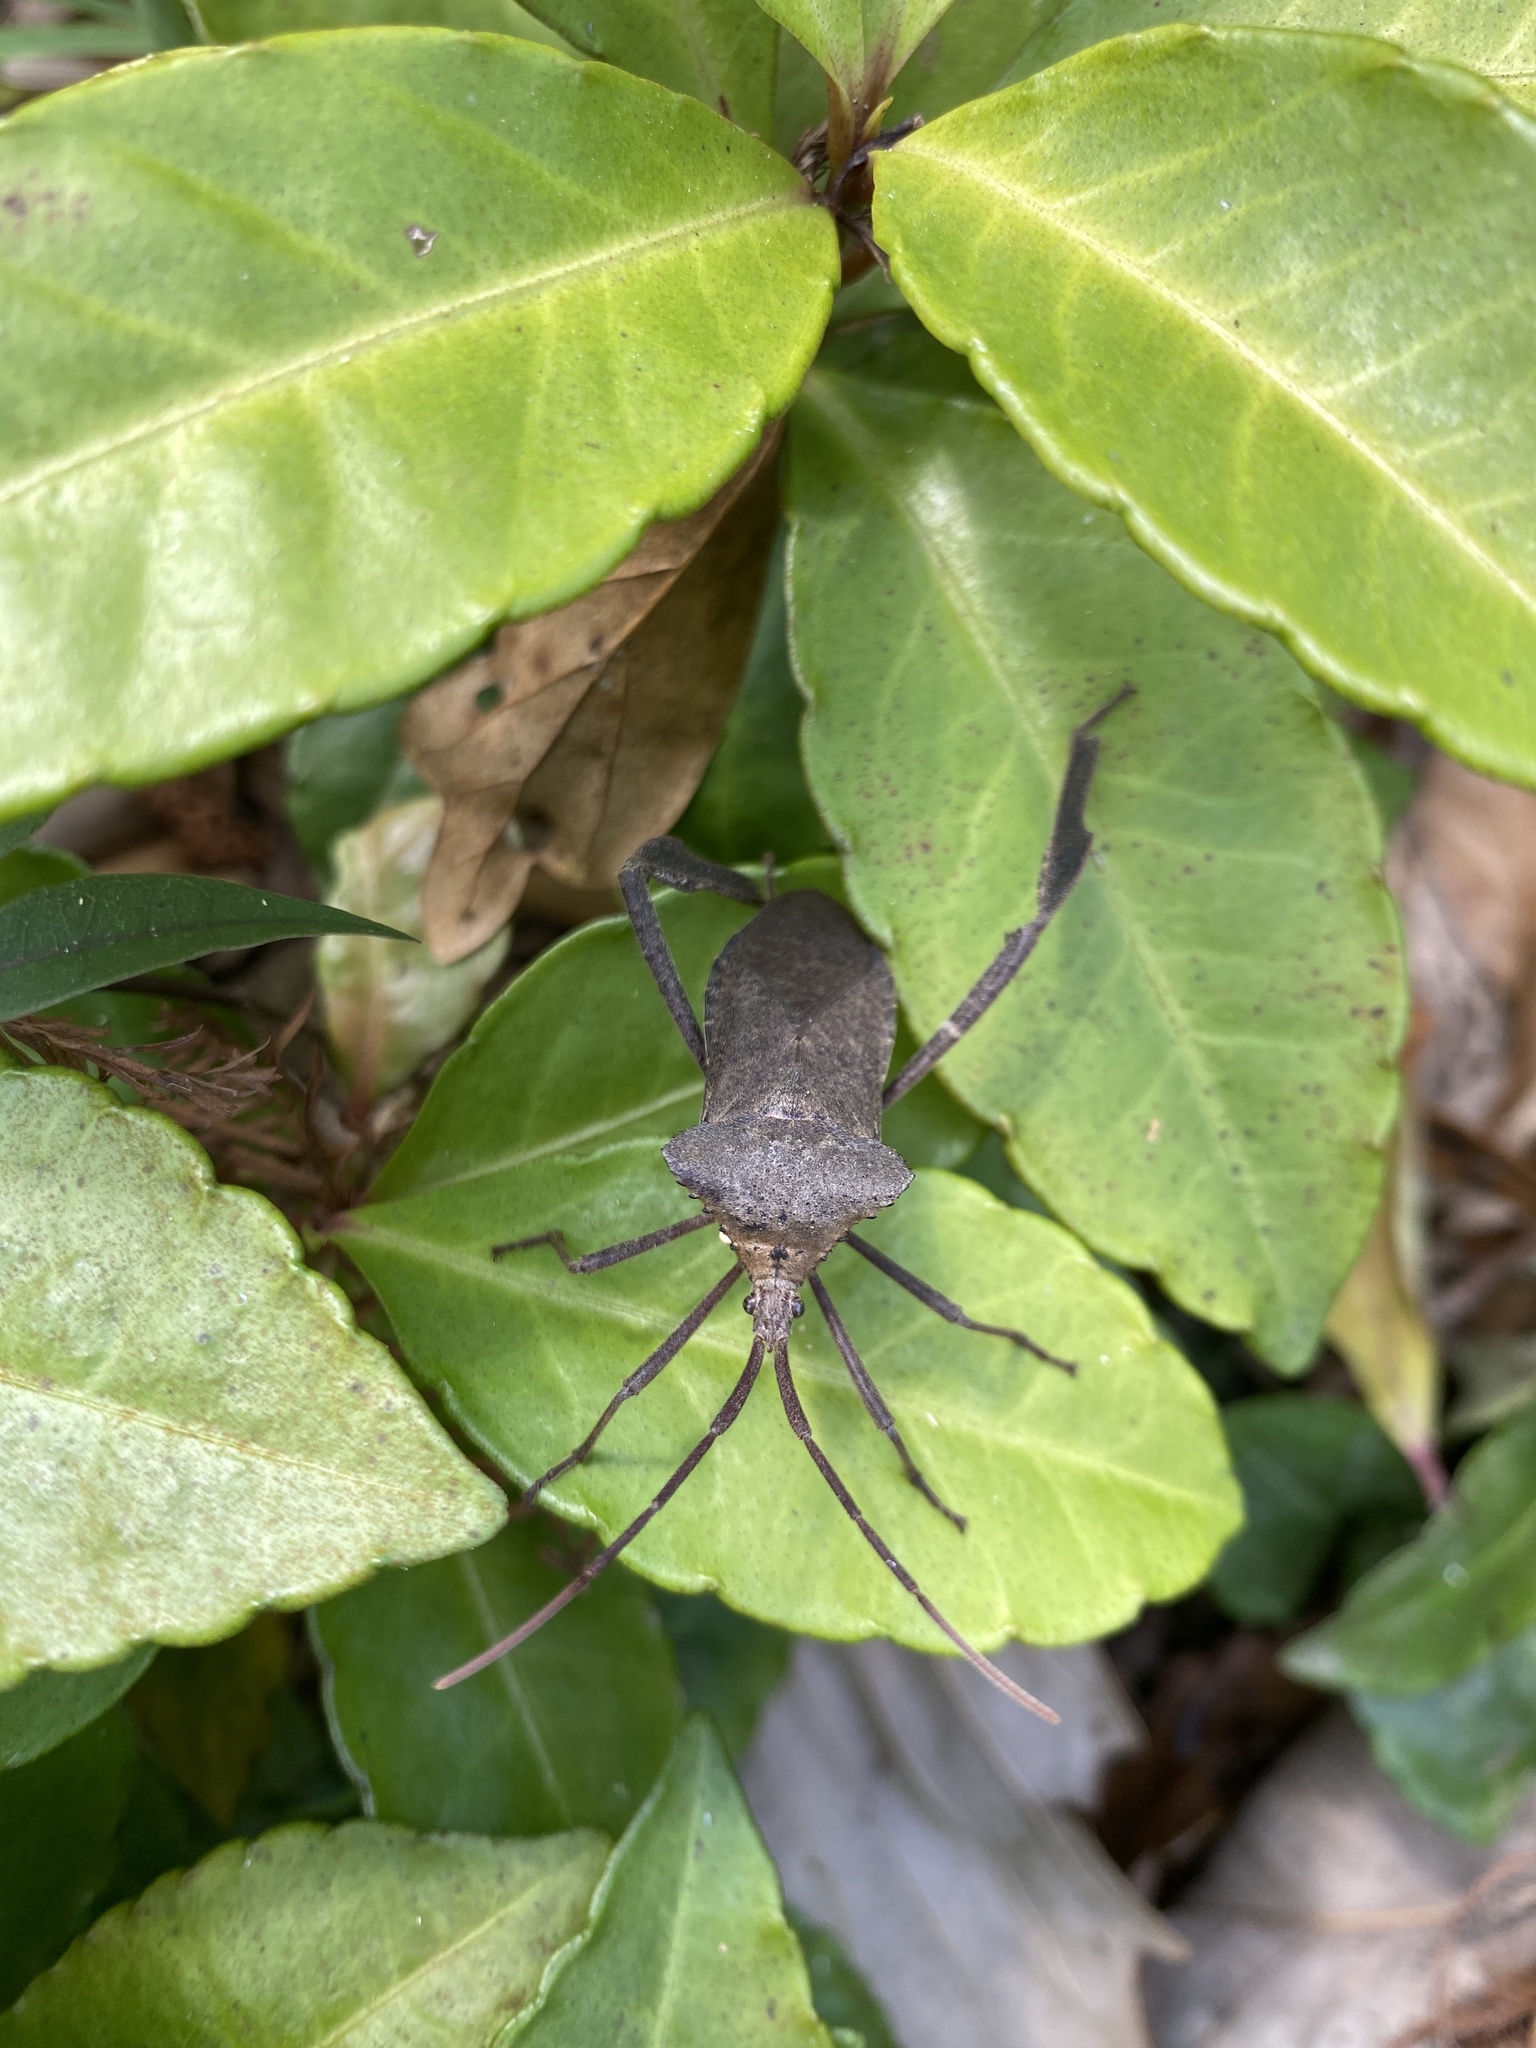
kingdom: Plantae
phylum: Tracheophyta
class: Magnoliopsida
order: Ericales
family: Primulaceae
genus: Ardisia
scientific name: Ardisia crenata
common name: Hen's eyes
